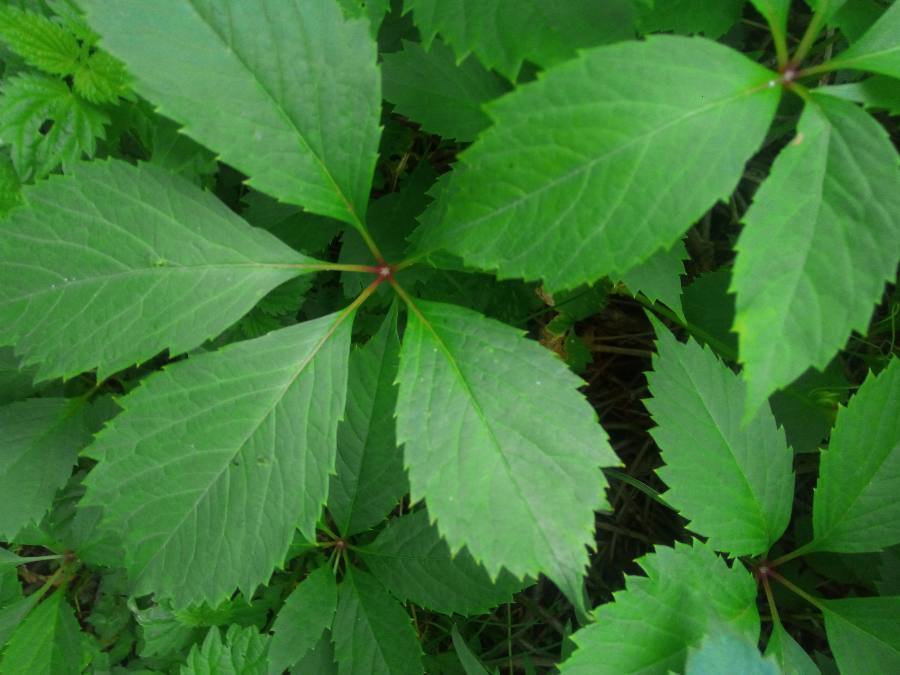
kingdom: Plantae
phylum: Tracheophyta
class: Magnoliopsida
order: Vitales
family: Vitaceae
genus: Parthenocissus
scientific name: Parthenocissus inserta
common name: False virginia-creeper
